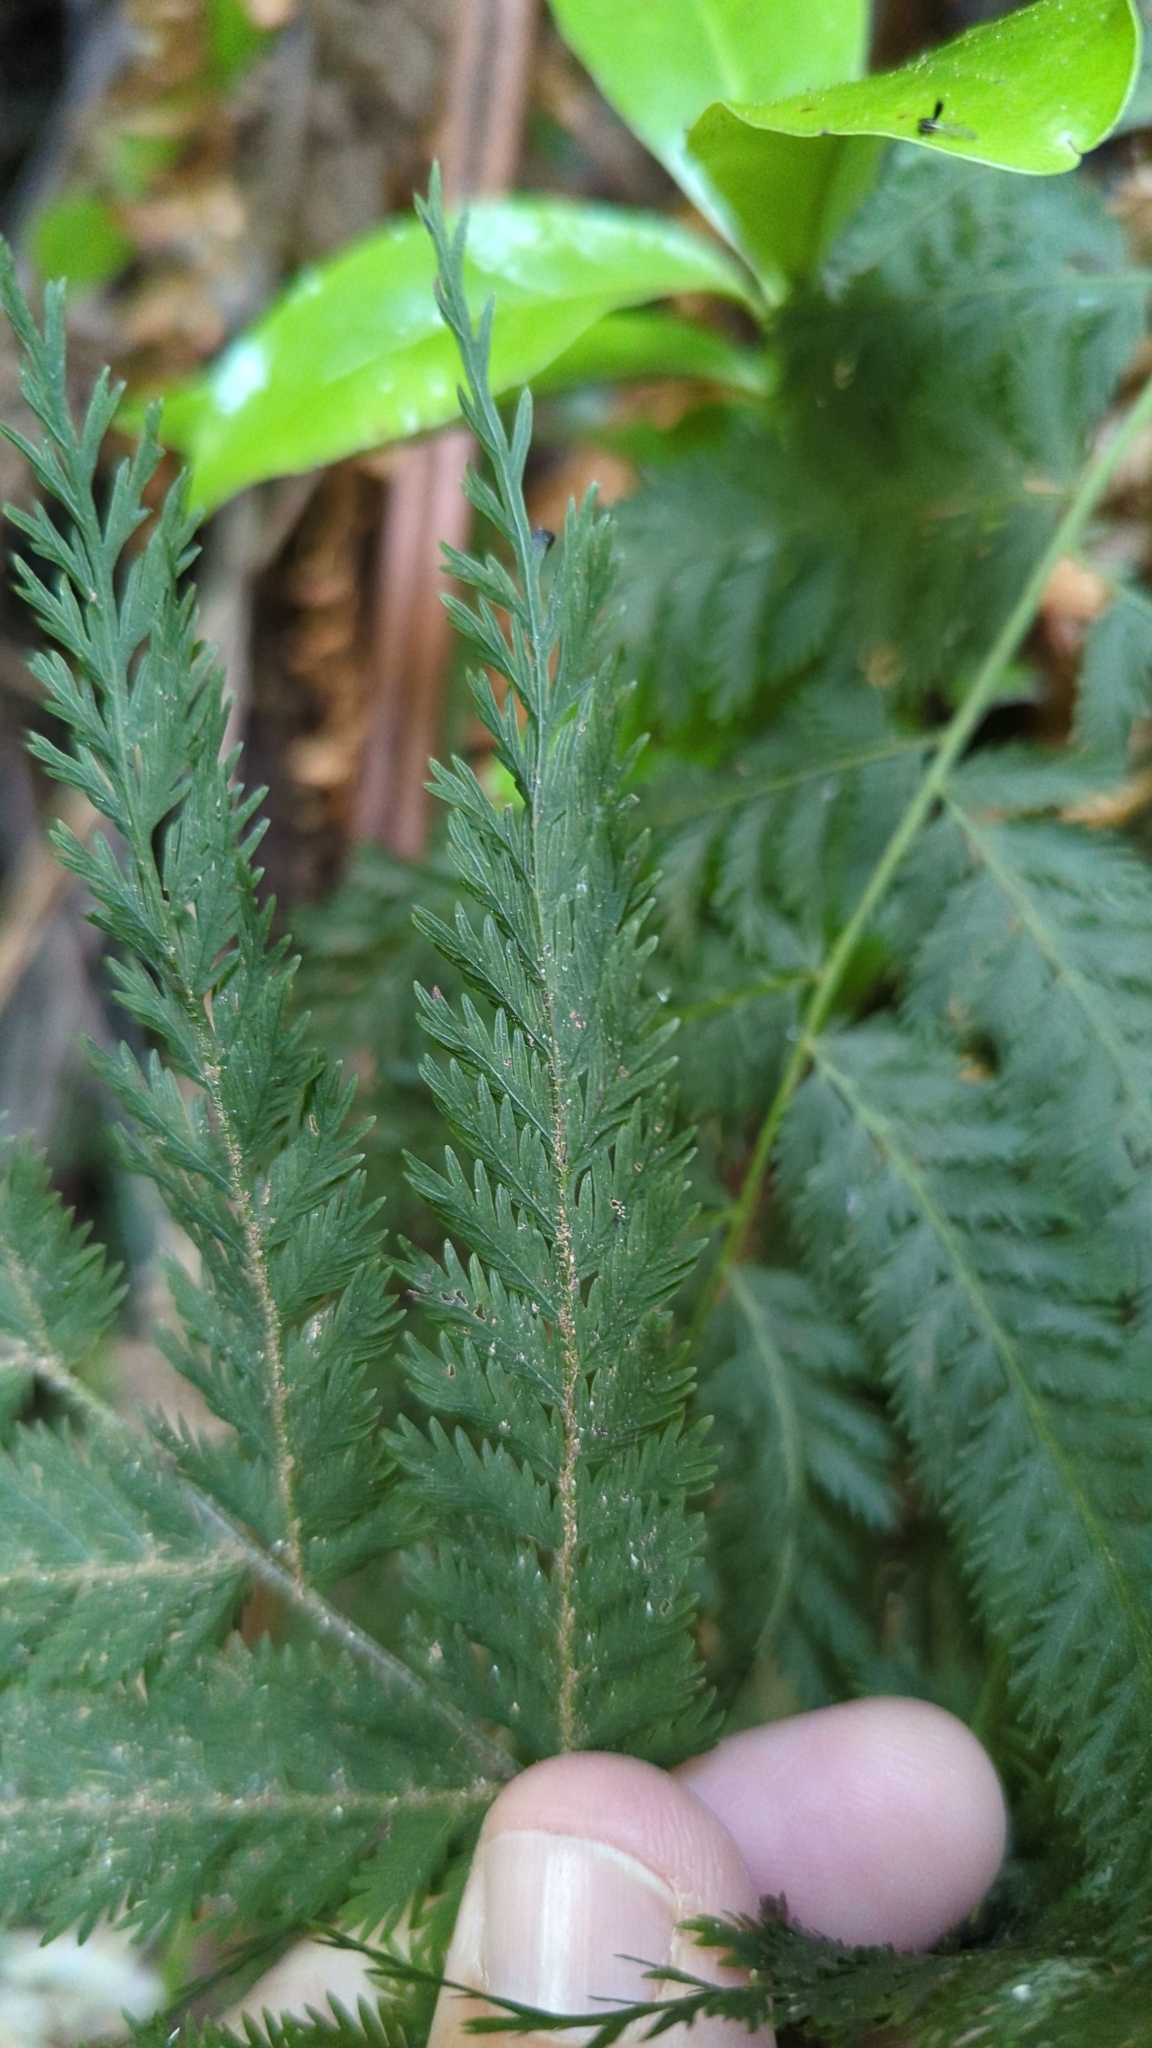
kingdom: Plantae
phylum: Tracheophyta
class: Polypodiopsida
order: Osmundales
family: Osmundaceae
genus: Leptopteris
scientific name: Leptopteris hymenophylloides
